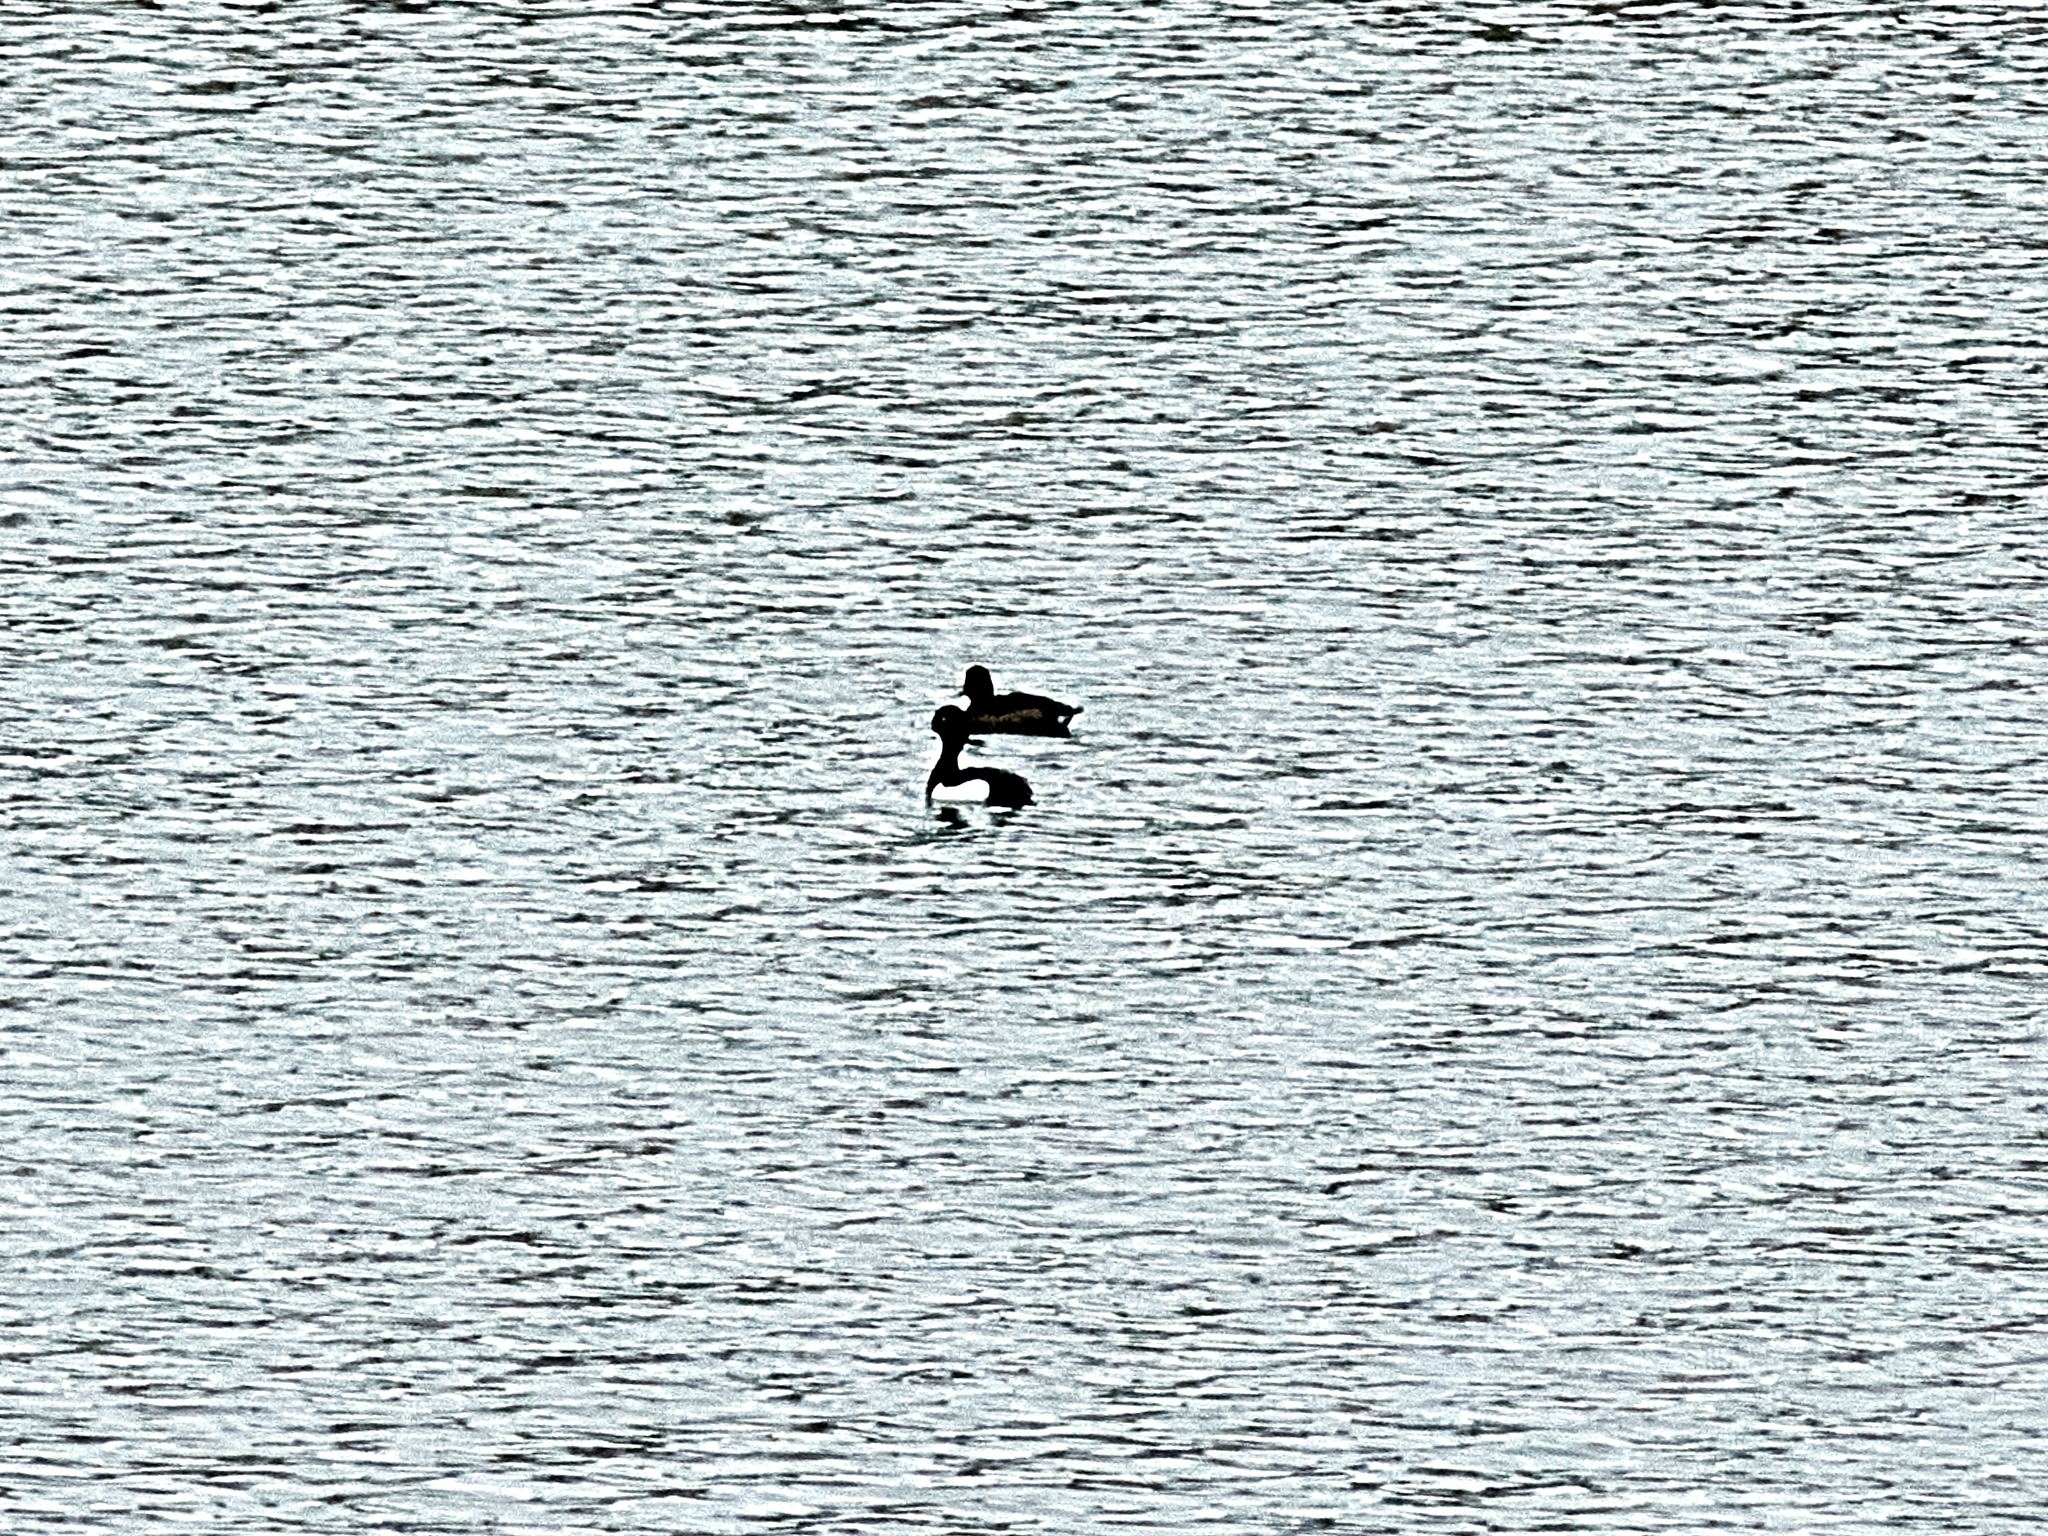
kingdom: Animalia
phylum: Chordata
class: Aves
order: Anseriformes
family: Anatidae
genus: Aythya
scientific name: Aythya fuligula
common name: Tufted duck
